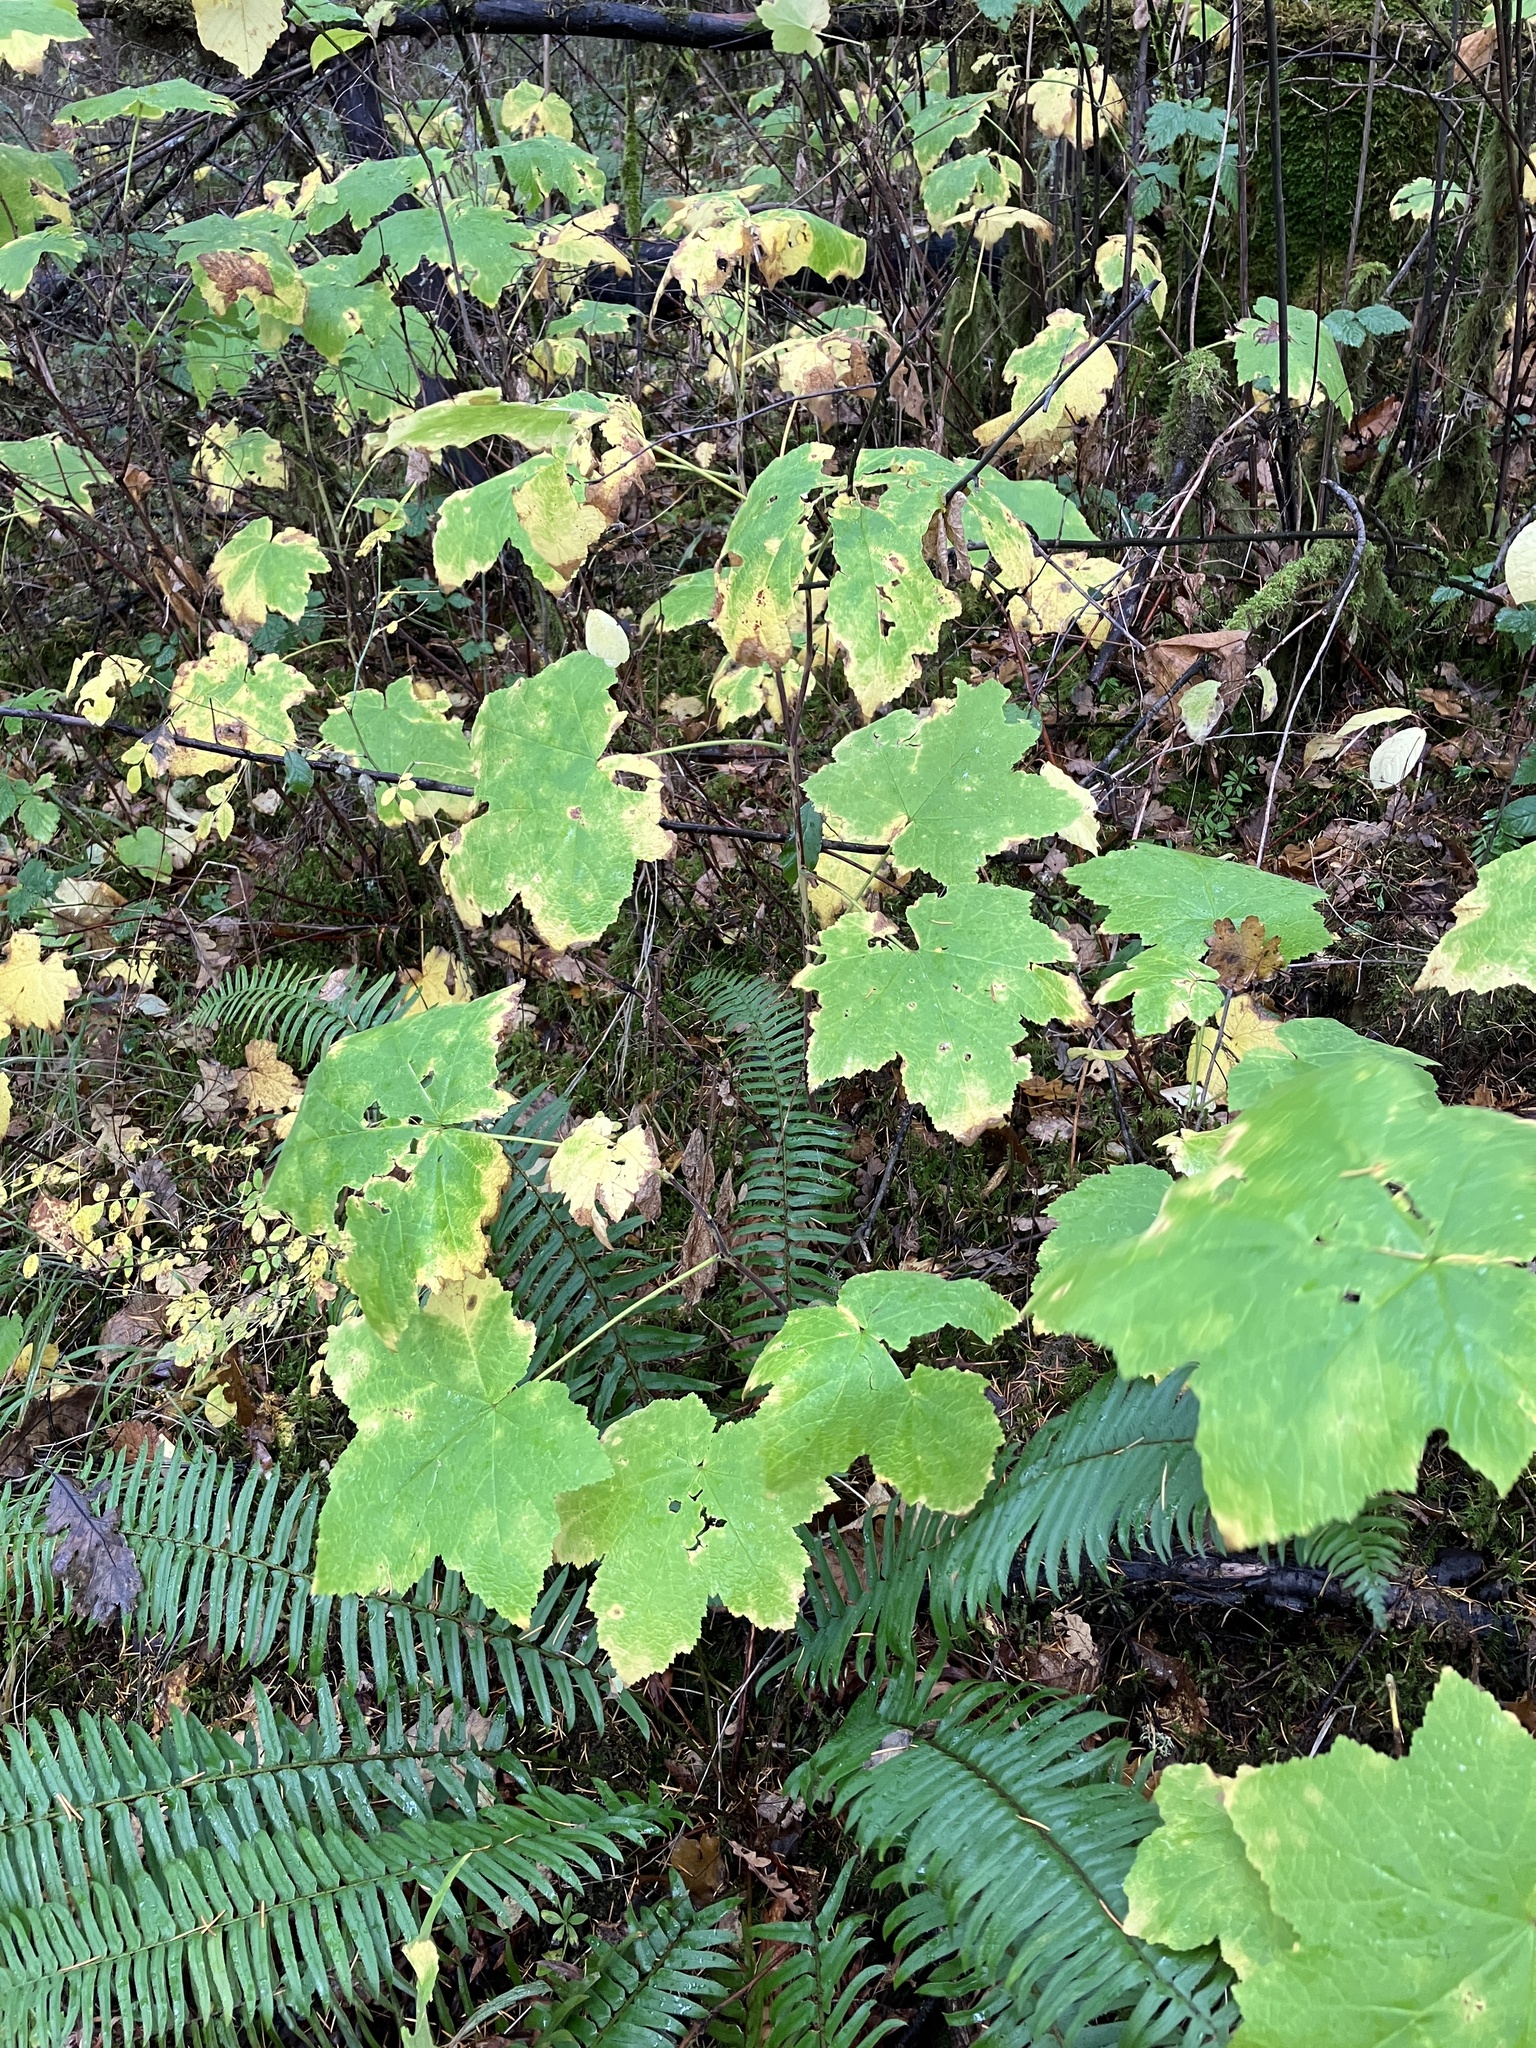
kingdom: Plantae
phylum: Tracheophyta
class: Magnoliopsida
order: Rosales
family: Rosaceae
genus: Rubus
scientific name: Rubus parviflorus
